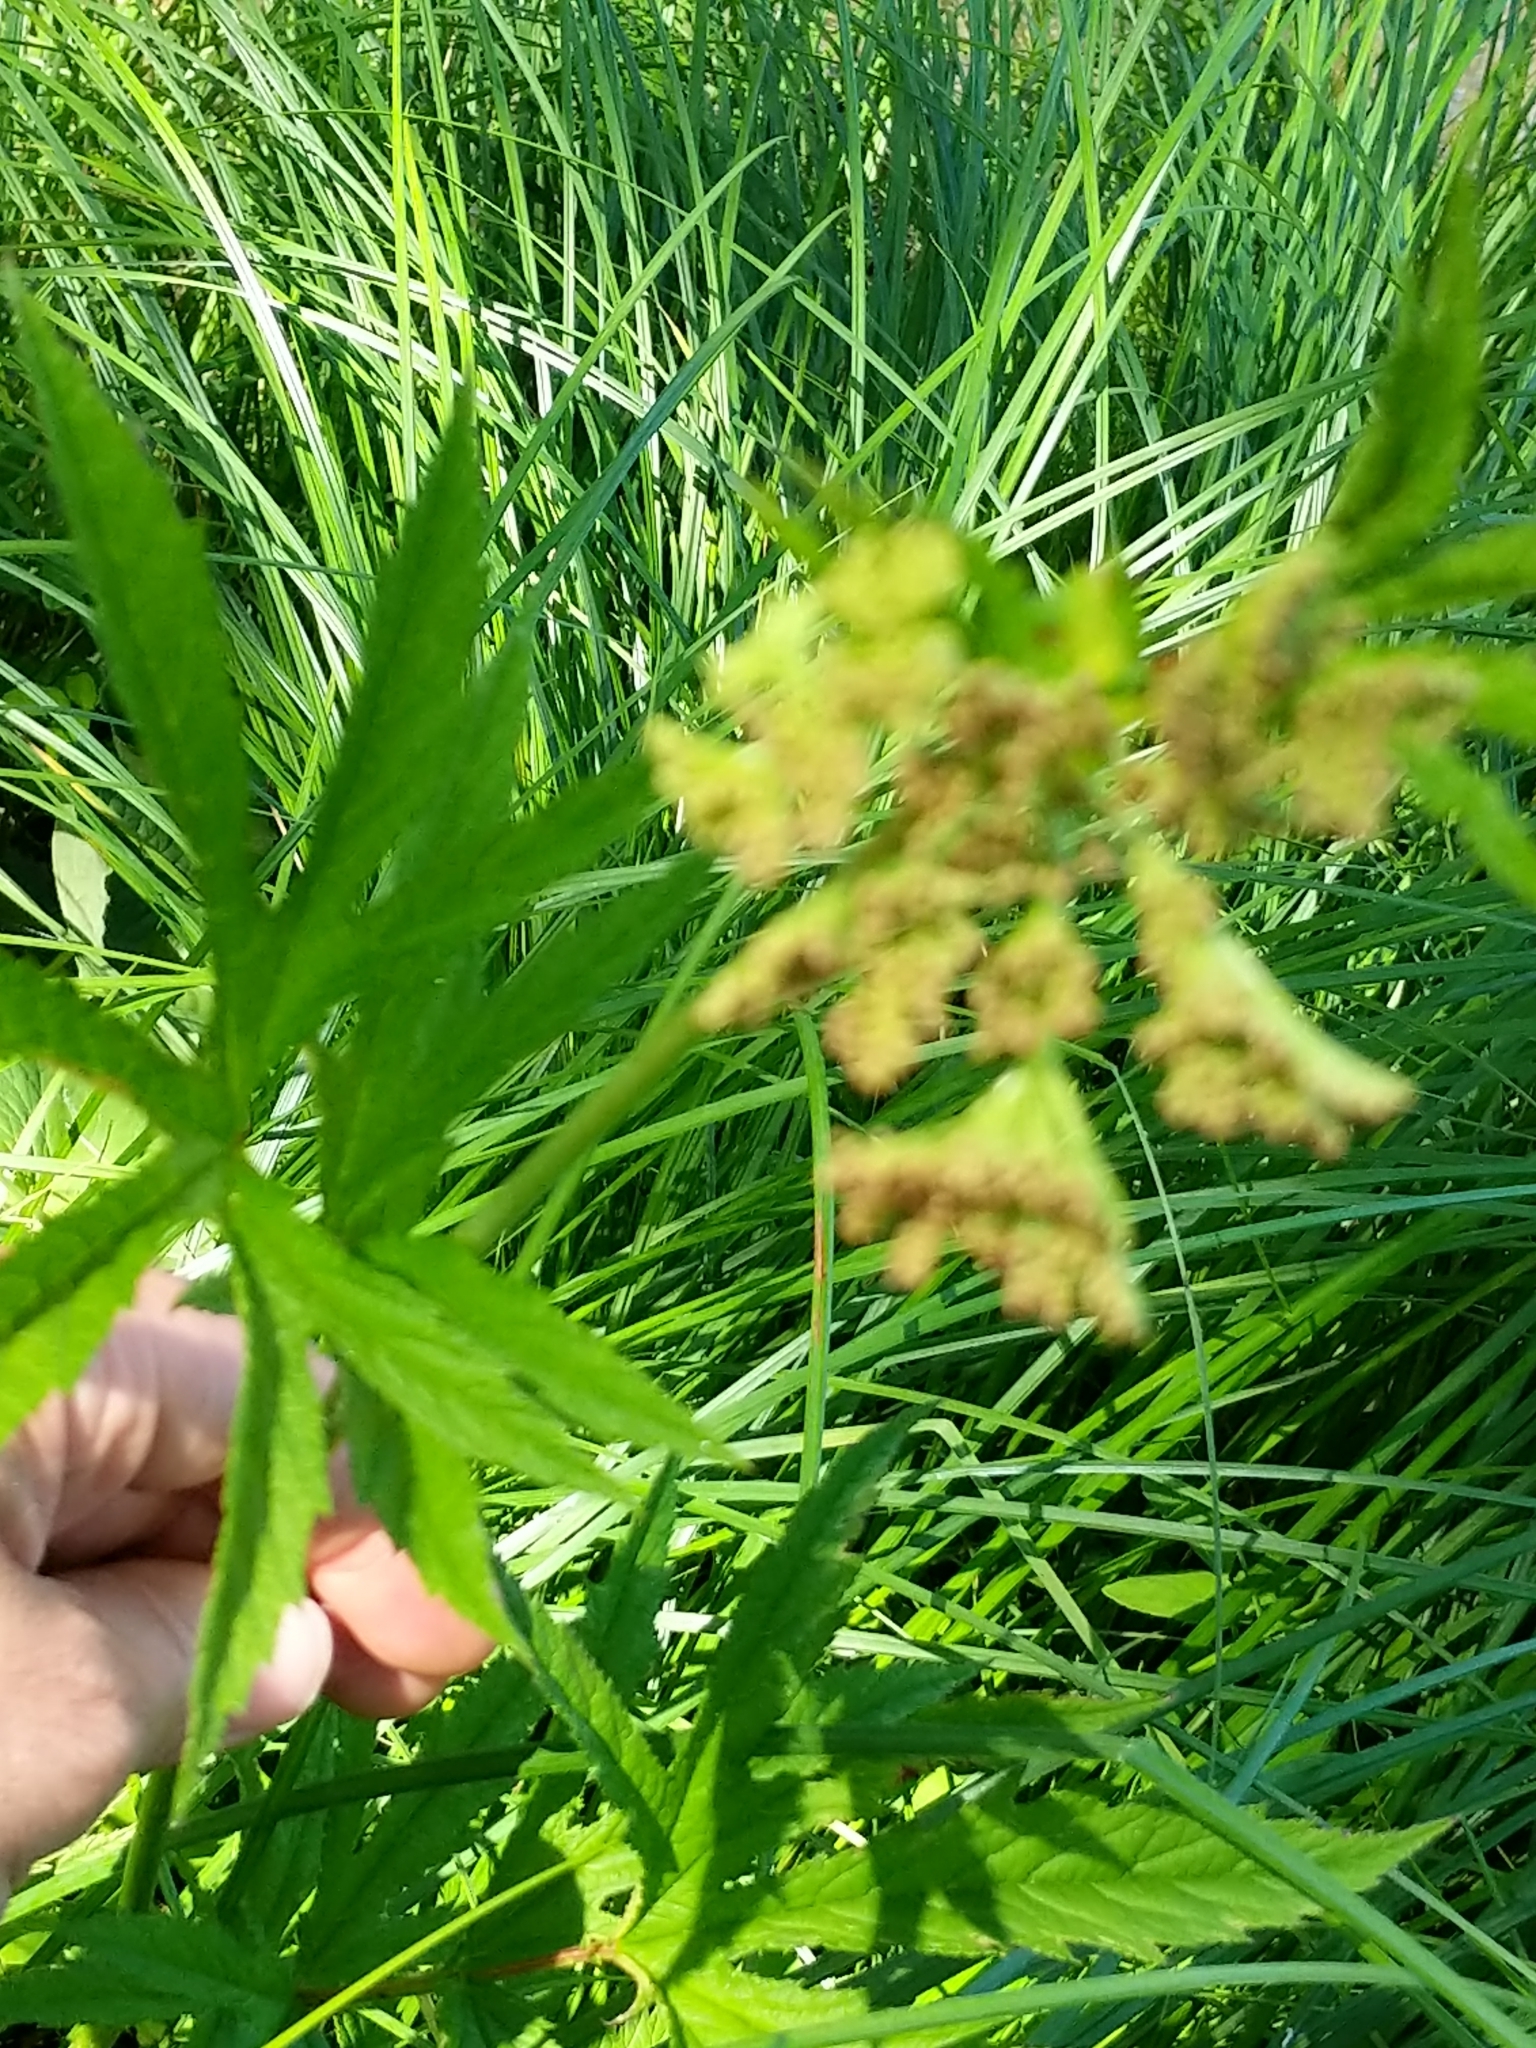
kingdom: Plantae
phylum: Tracheophyta
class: Magnoliopsida
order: Rosales
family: Rosaceae
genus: Filipendula
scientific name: Filipendula rubra
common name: Queen-of-the-prairie
